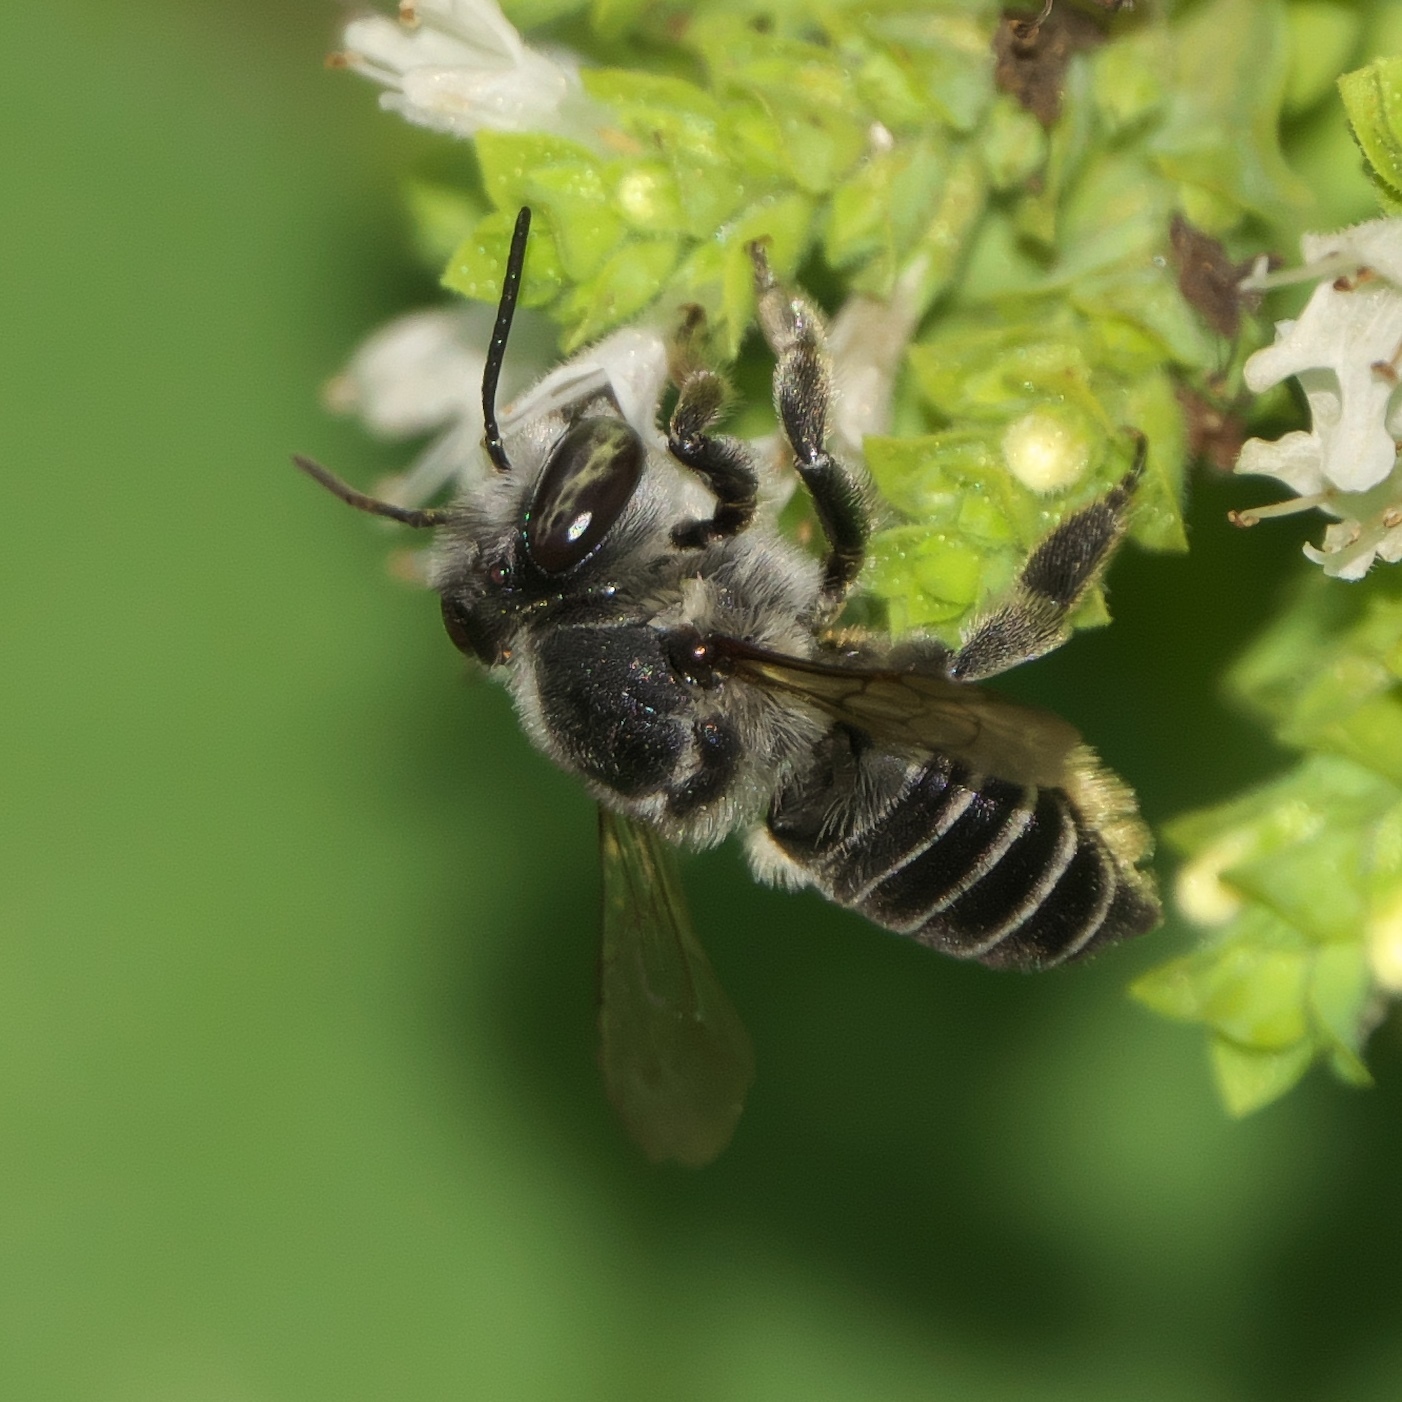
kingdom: Animalia
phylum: Arthropoda
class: Insecta
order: Hymenoptera
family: Megachilidae
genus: Megachile
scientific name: Megachile petulans
